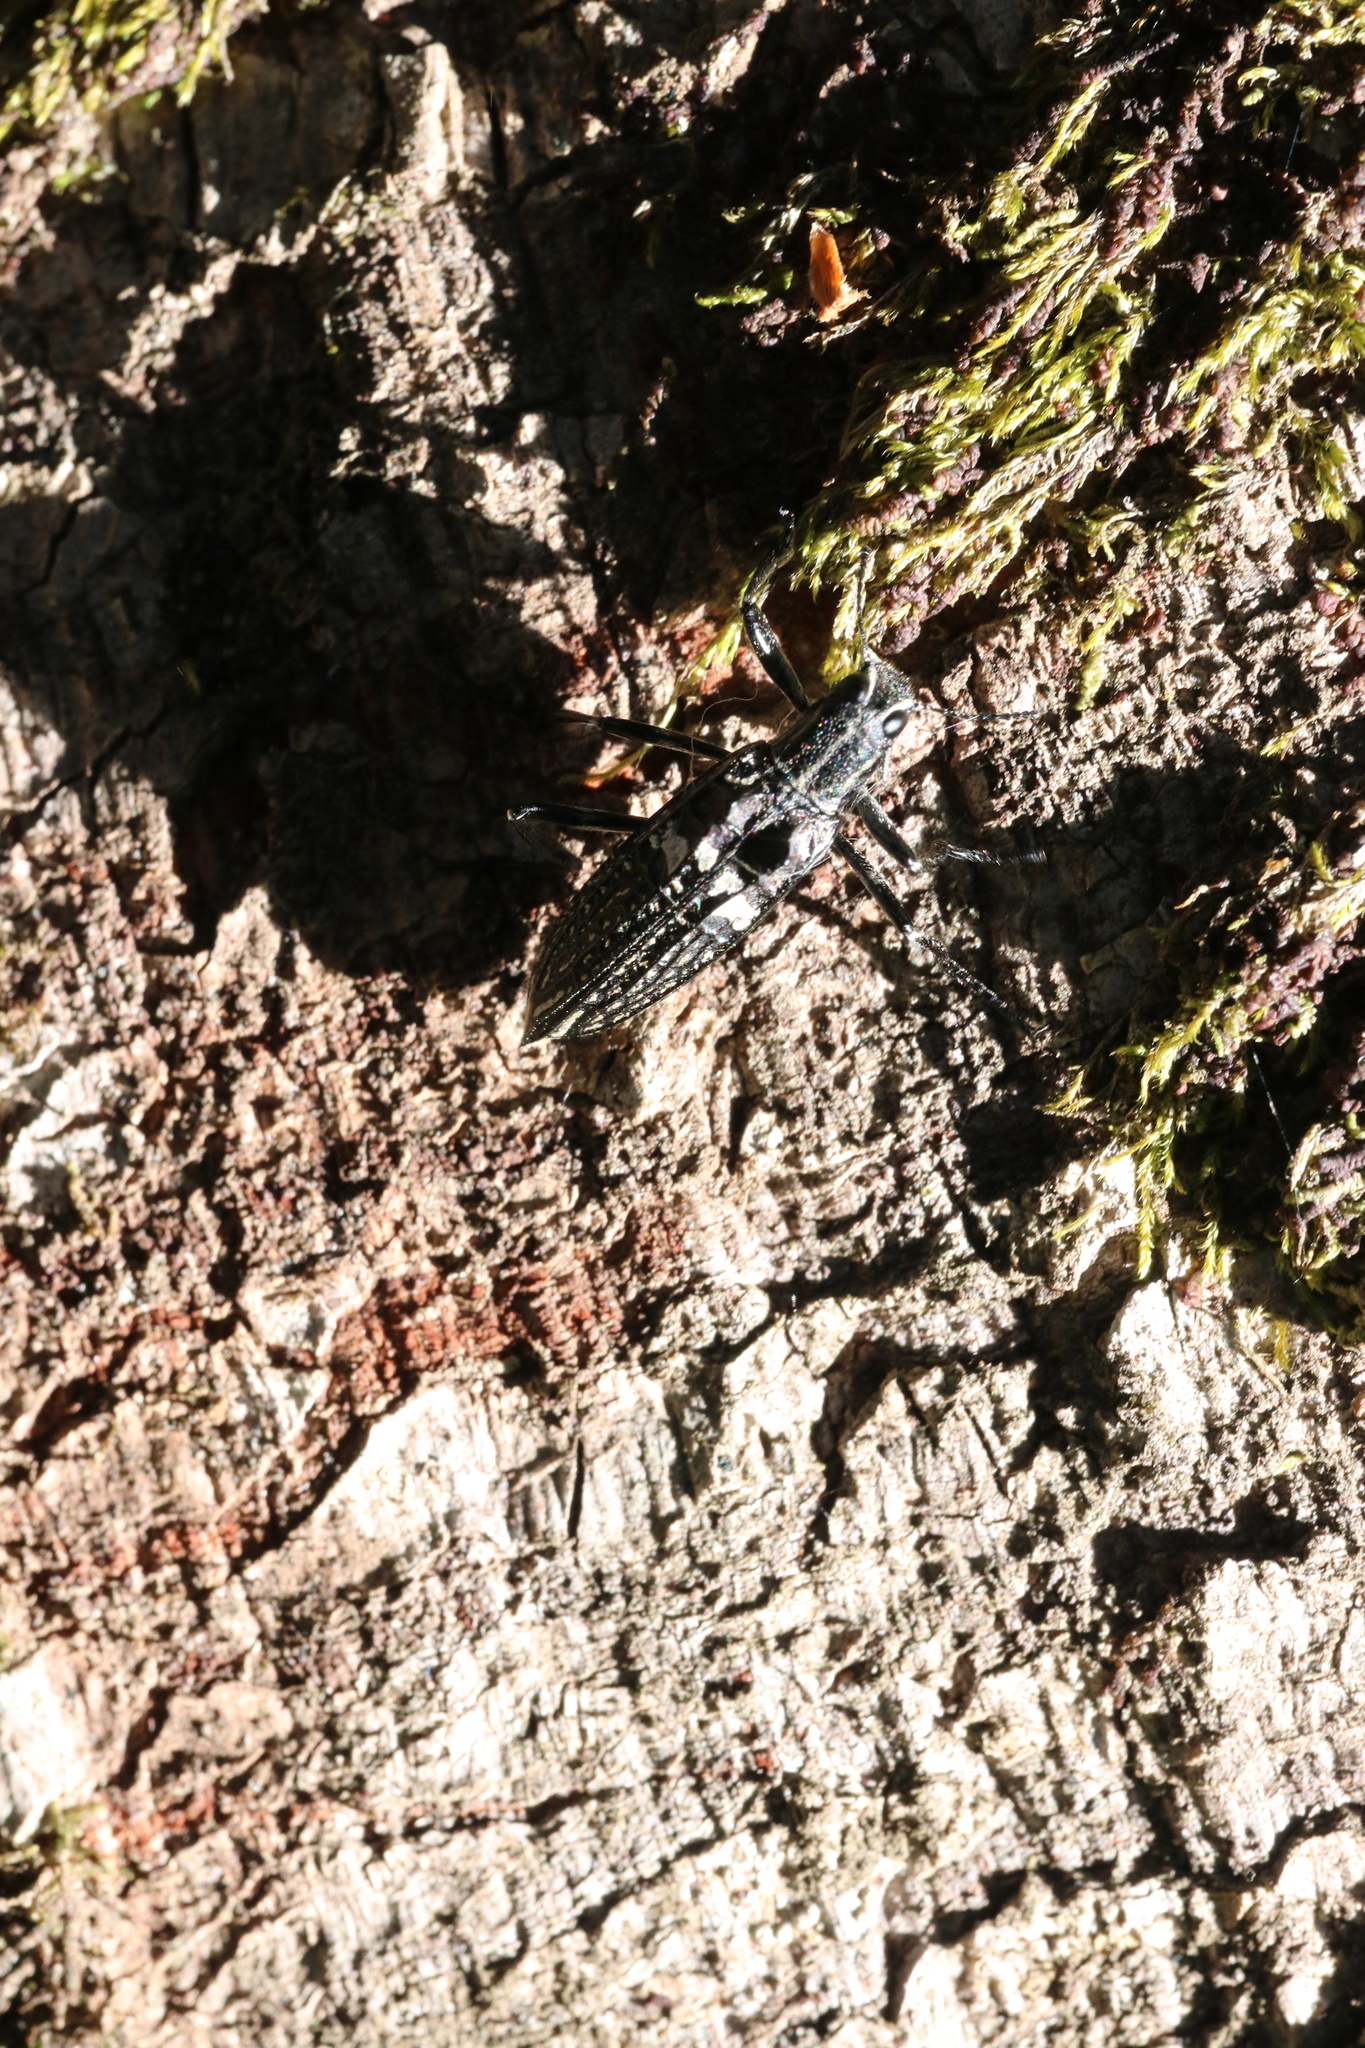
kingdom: Animalia
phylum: Arthropoda
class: Insecta
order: Coleoptera
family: Tenebrionidae
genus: Homocyrtus
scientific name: Homocyrtus
